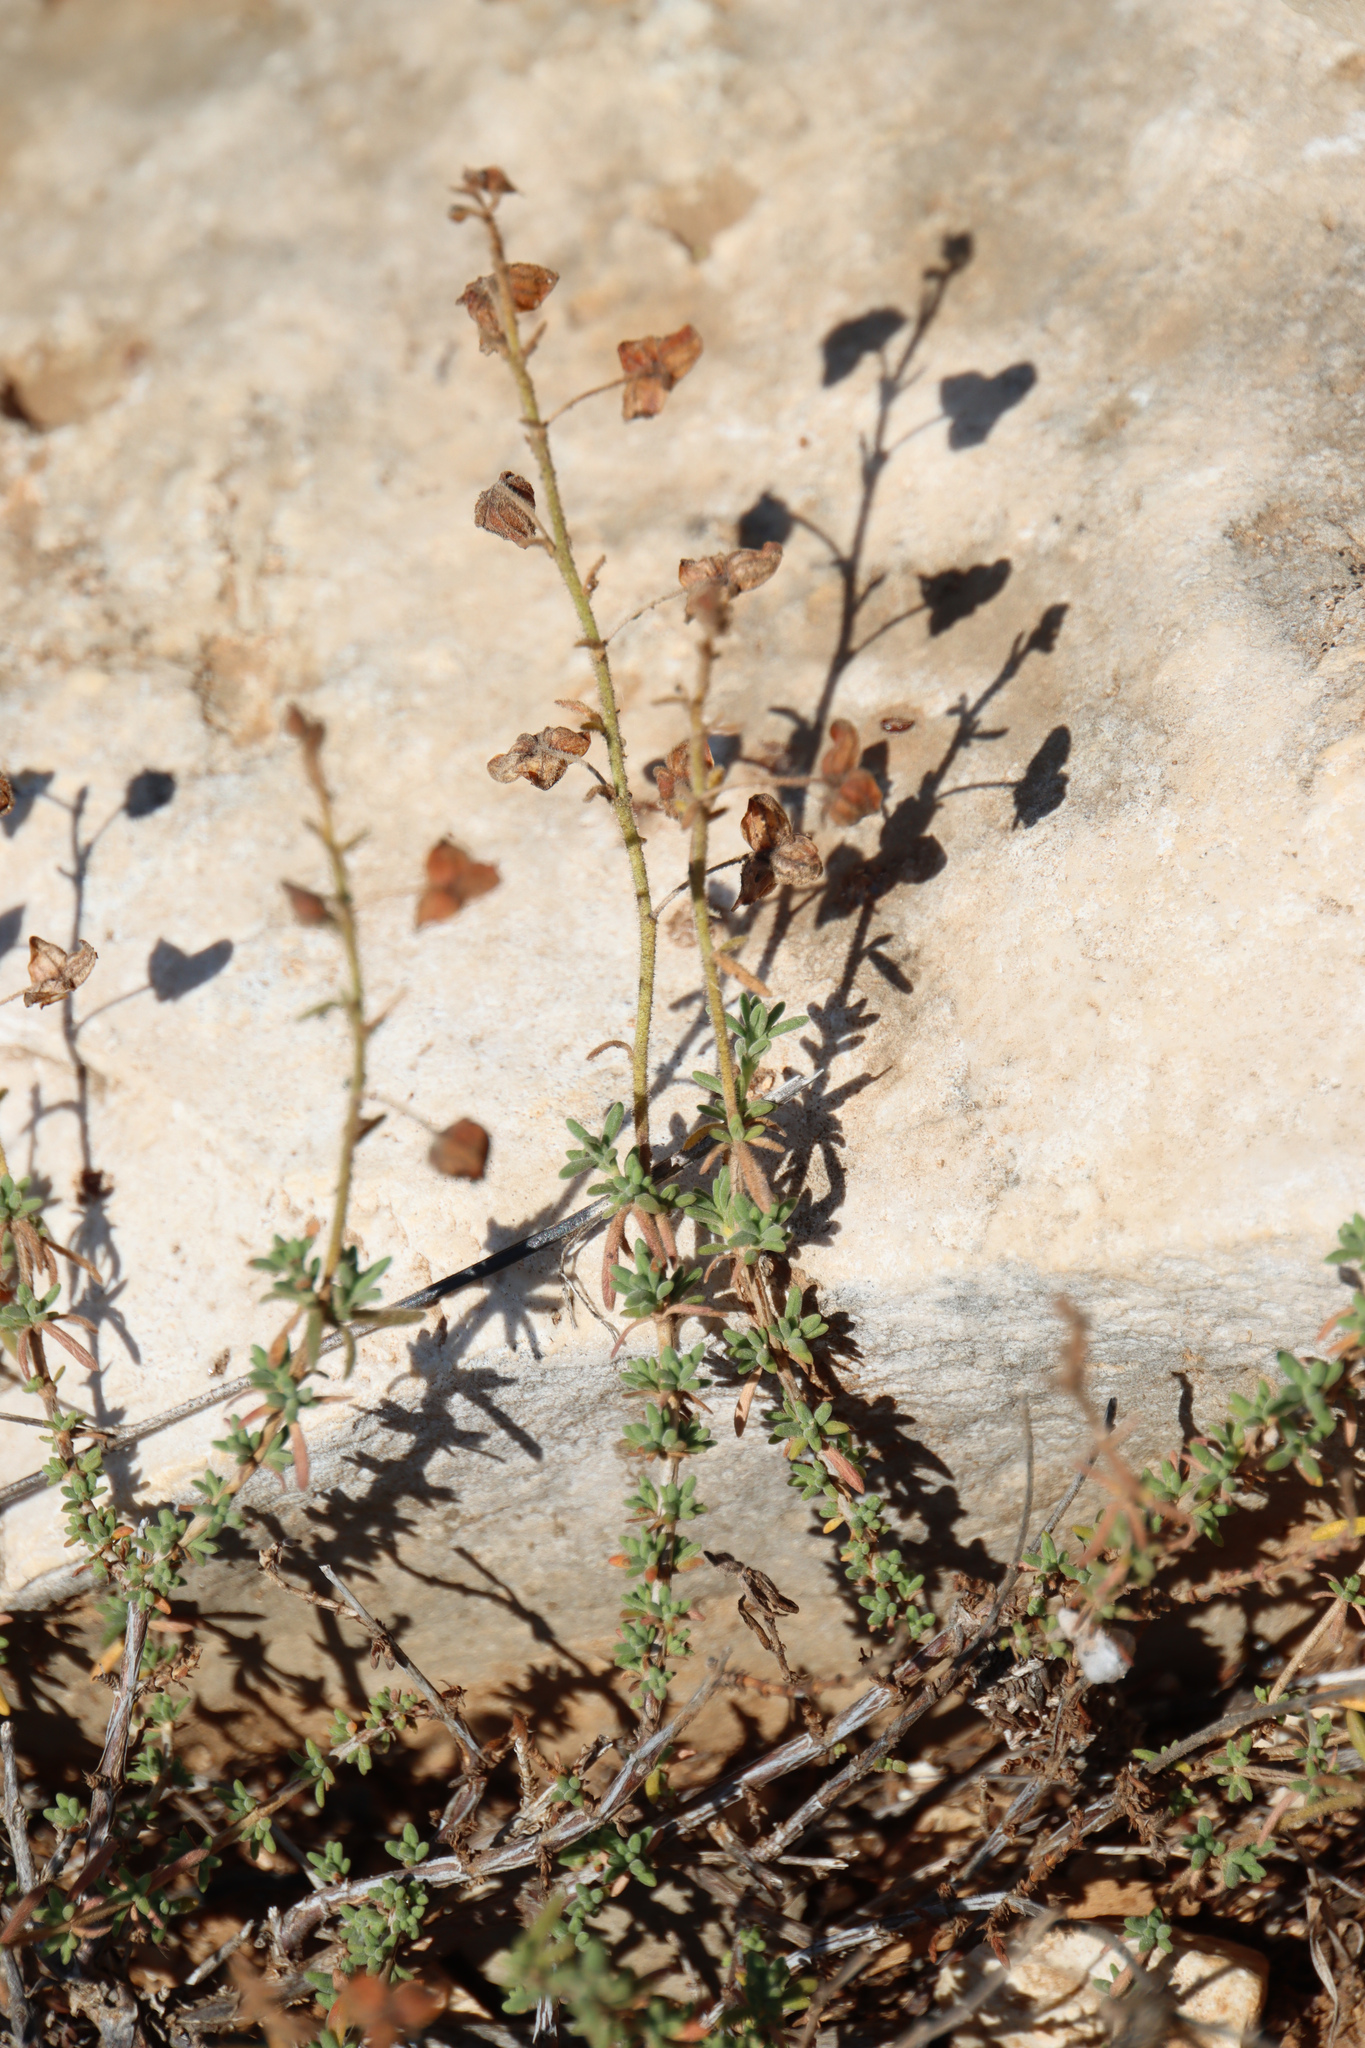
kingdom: Plantae
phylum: Tracheophyta
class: Magnoliopsida
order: Malvales
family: Cistaceae
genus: Fumana
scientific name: Fumana thymifolia
